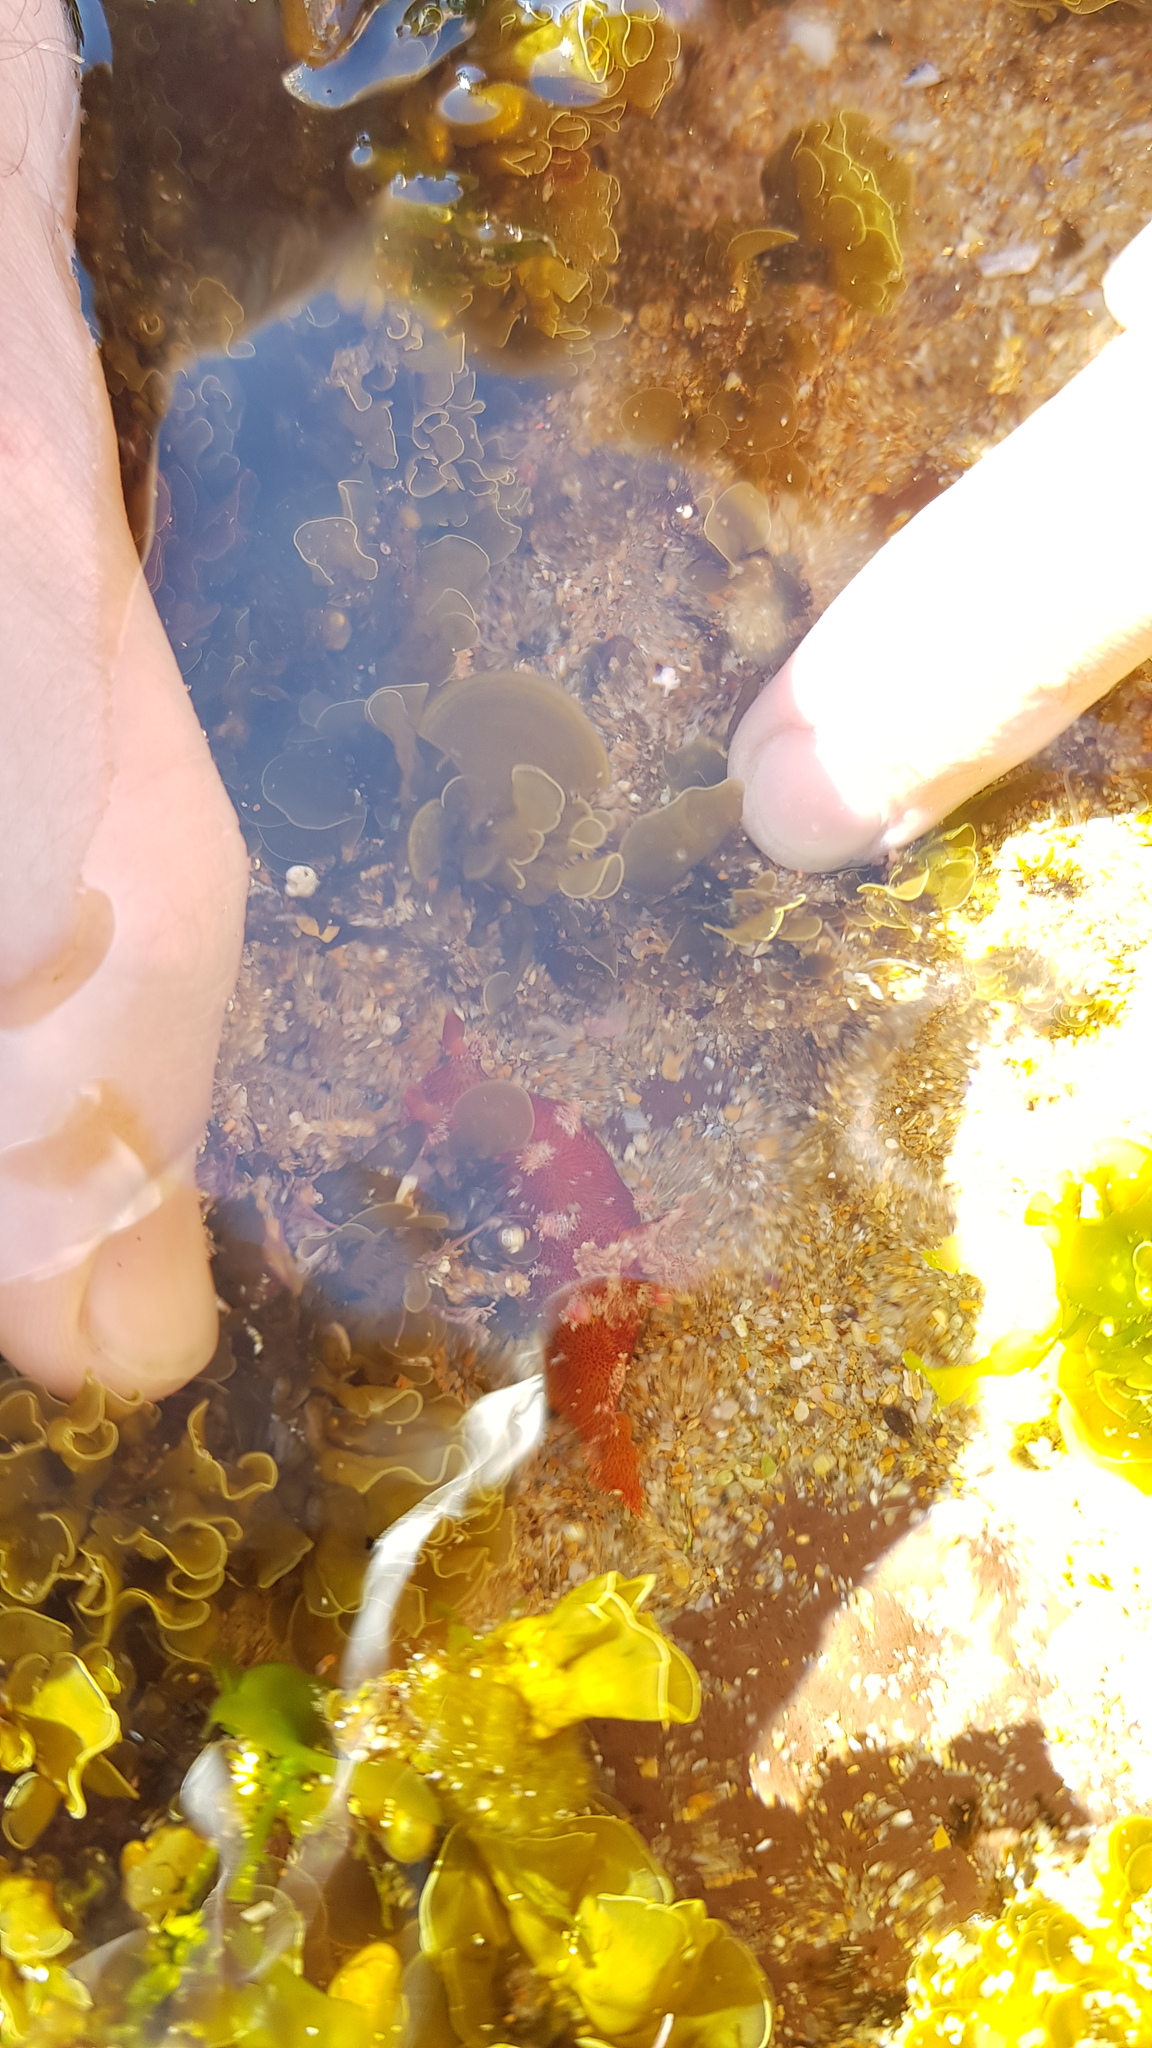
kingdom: Animalia
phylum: Mollusca
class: Gastropoda
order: Nudibranchia
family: Polyceridae
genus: Plocamopherus
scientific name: Plocamopherus imperialis
